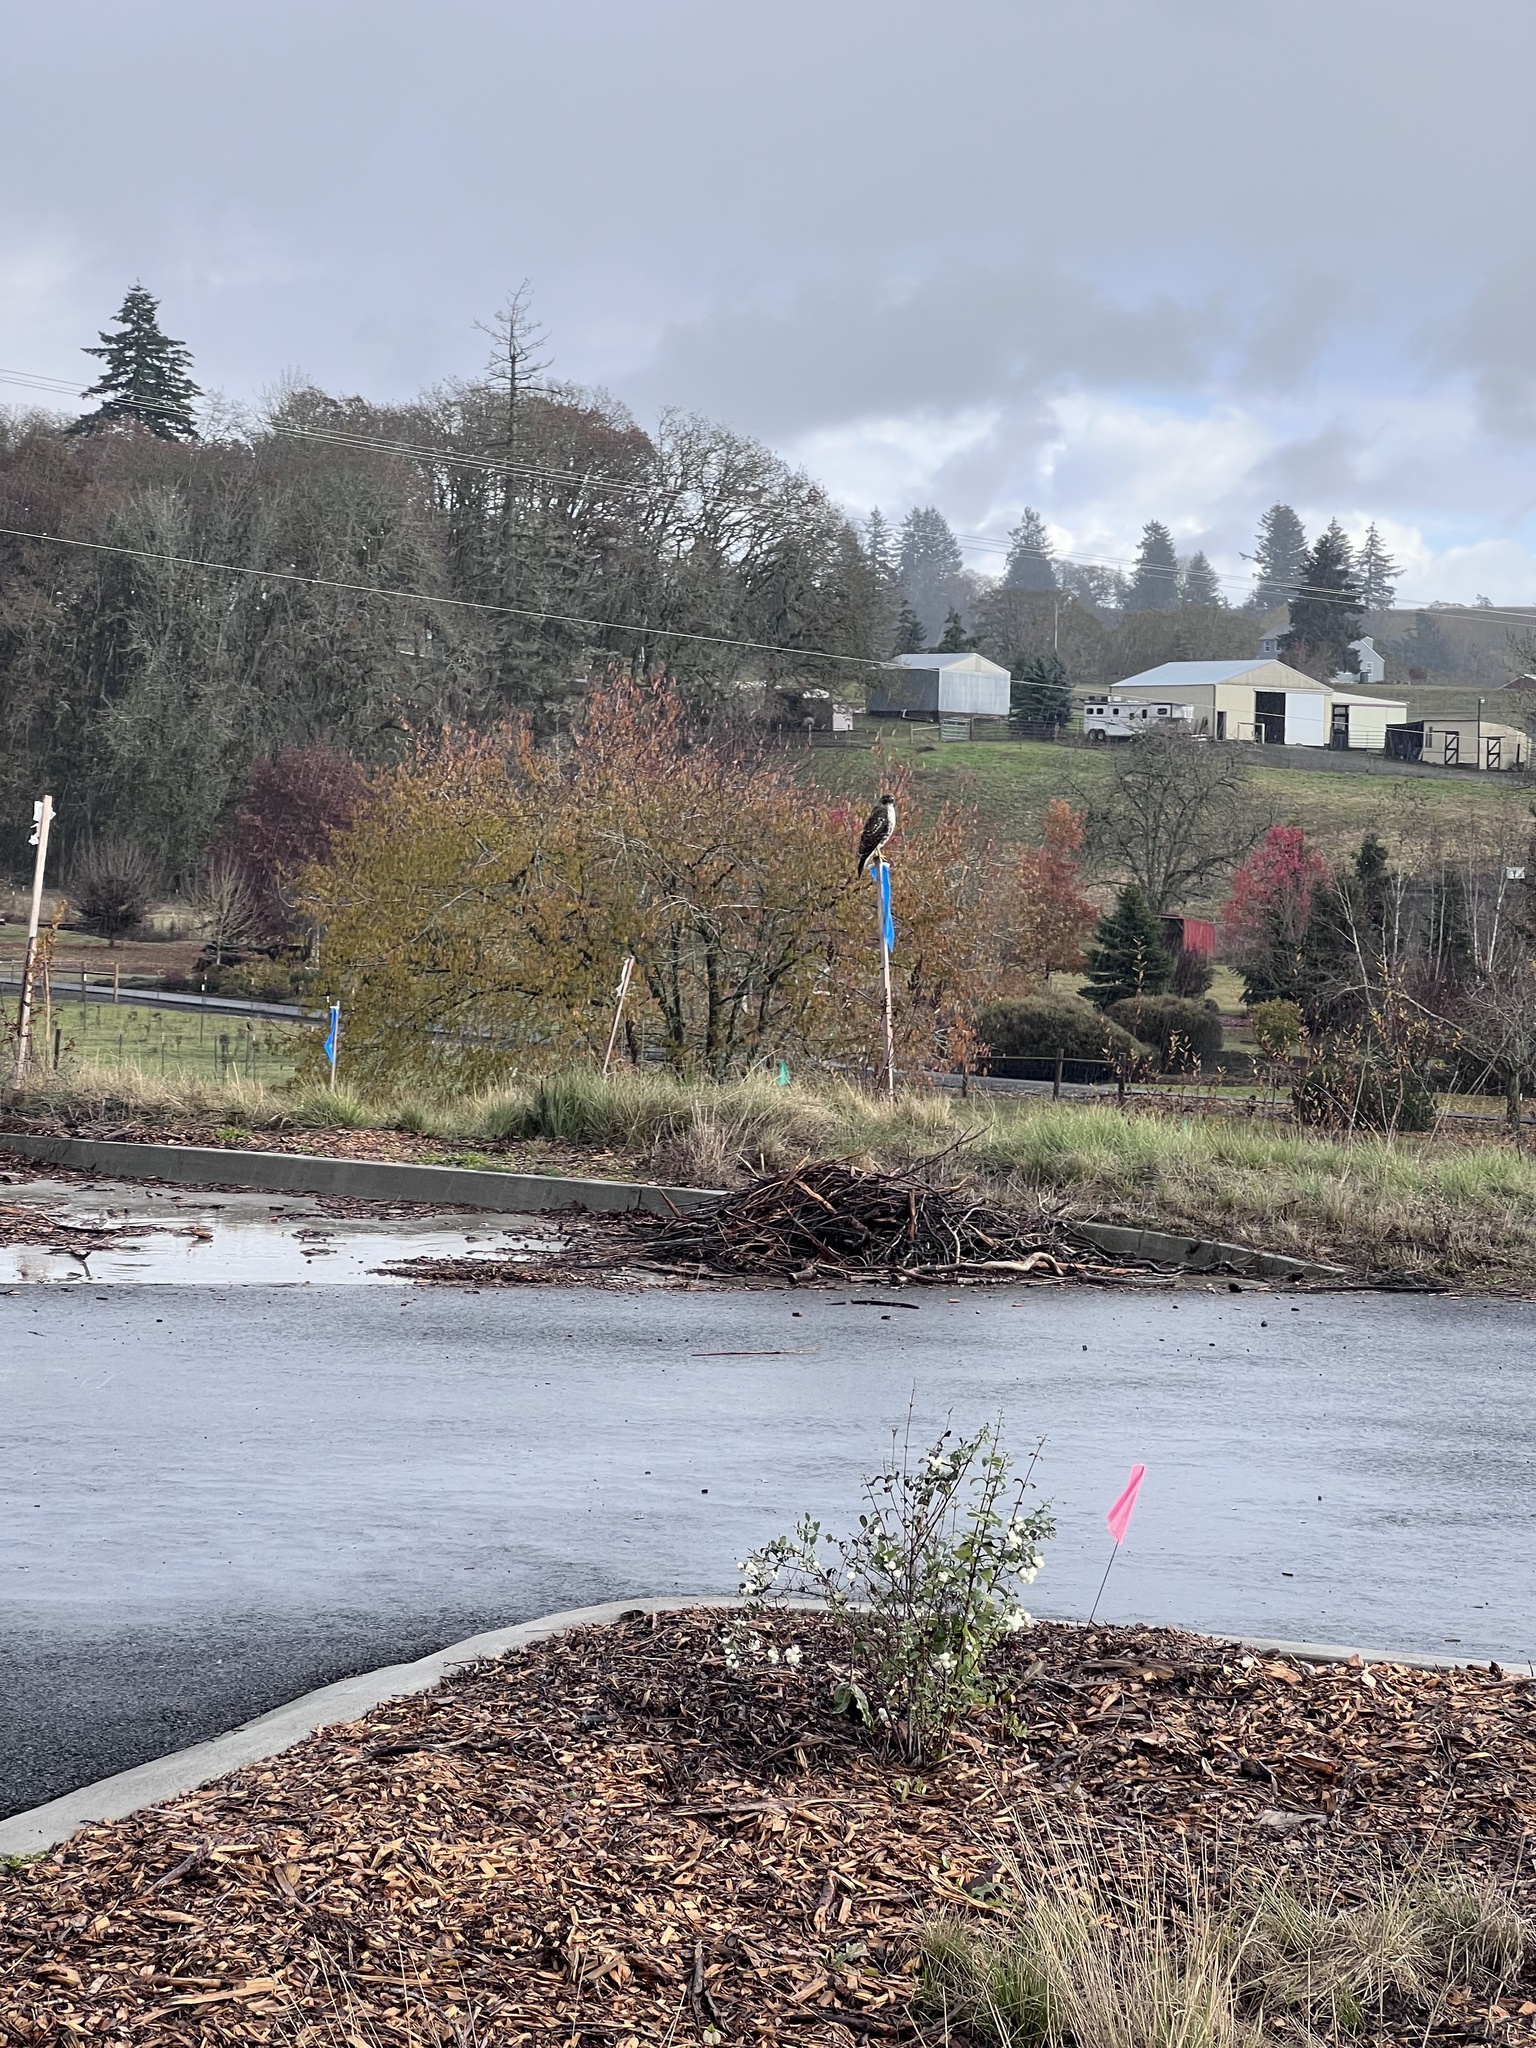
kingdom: Animalia
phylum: Chordata
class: Aves
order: Accipitriformes
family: Accipitridae
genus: Buteo
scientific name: Buteo jamaicensis
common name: Red-tailed hawk
